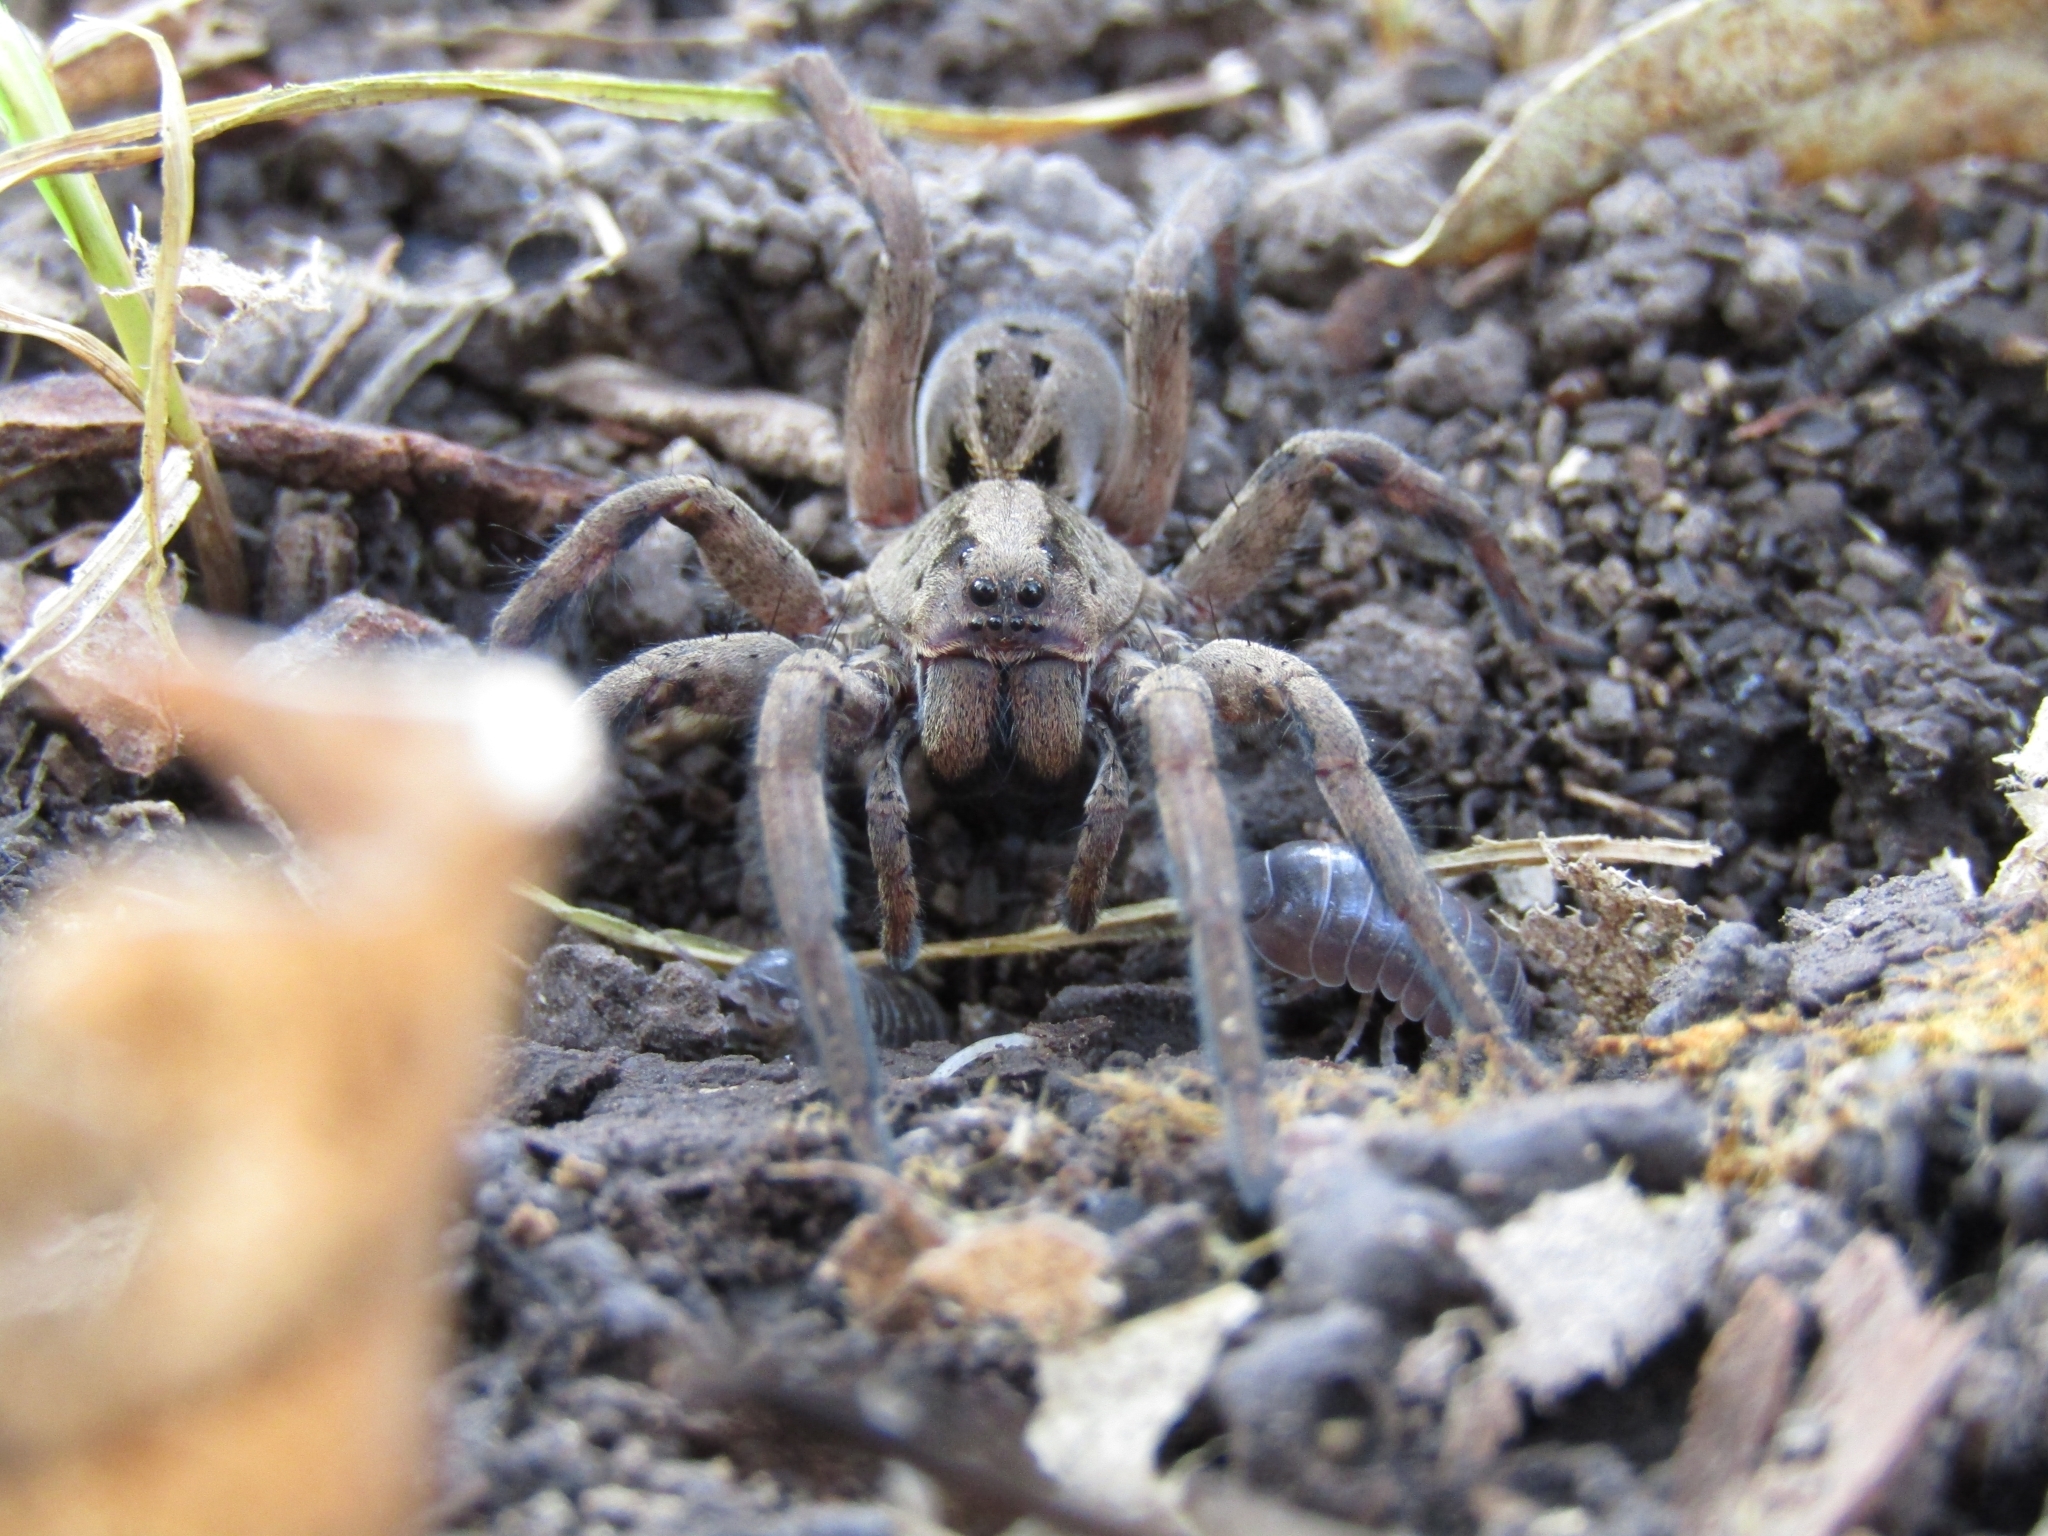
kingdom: Animalia
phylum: Arthropoda
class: Arachnida
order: Araneae
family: Lycosidae
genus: Lycosa
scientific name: Lycosa erythrognatha
